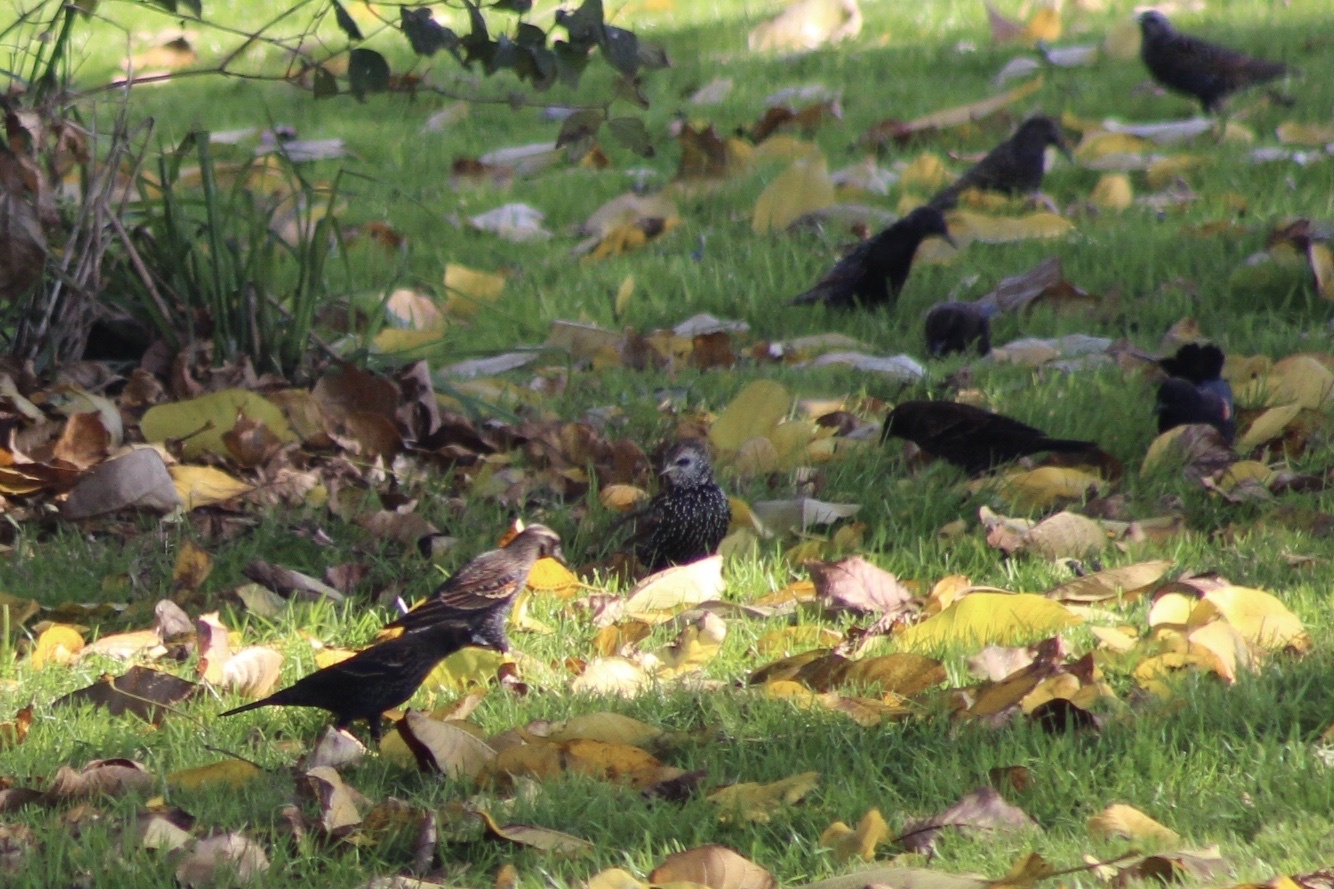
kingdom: Animalia
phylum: Chordata
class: Aves
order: Passeriformes
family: Icteridae
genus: Agelaius
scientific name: Agelaius phoeniceus
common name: Red-winged blackbird
